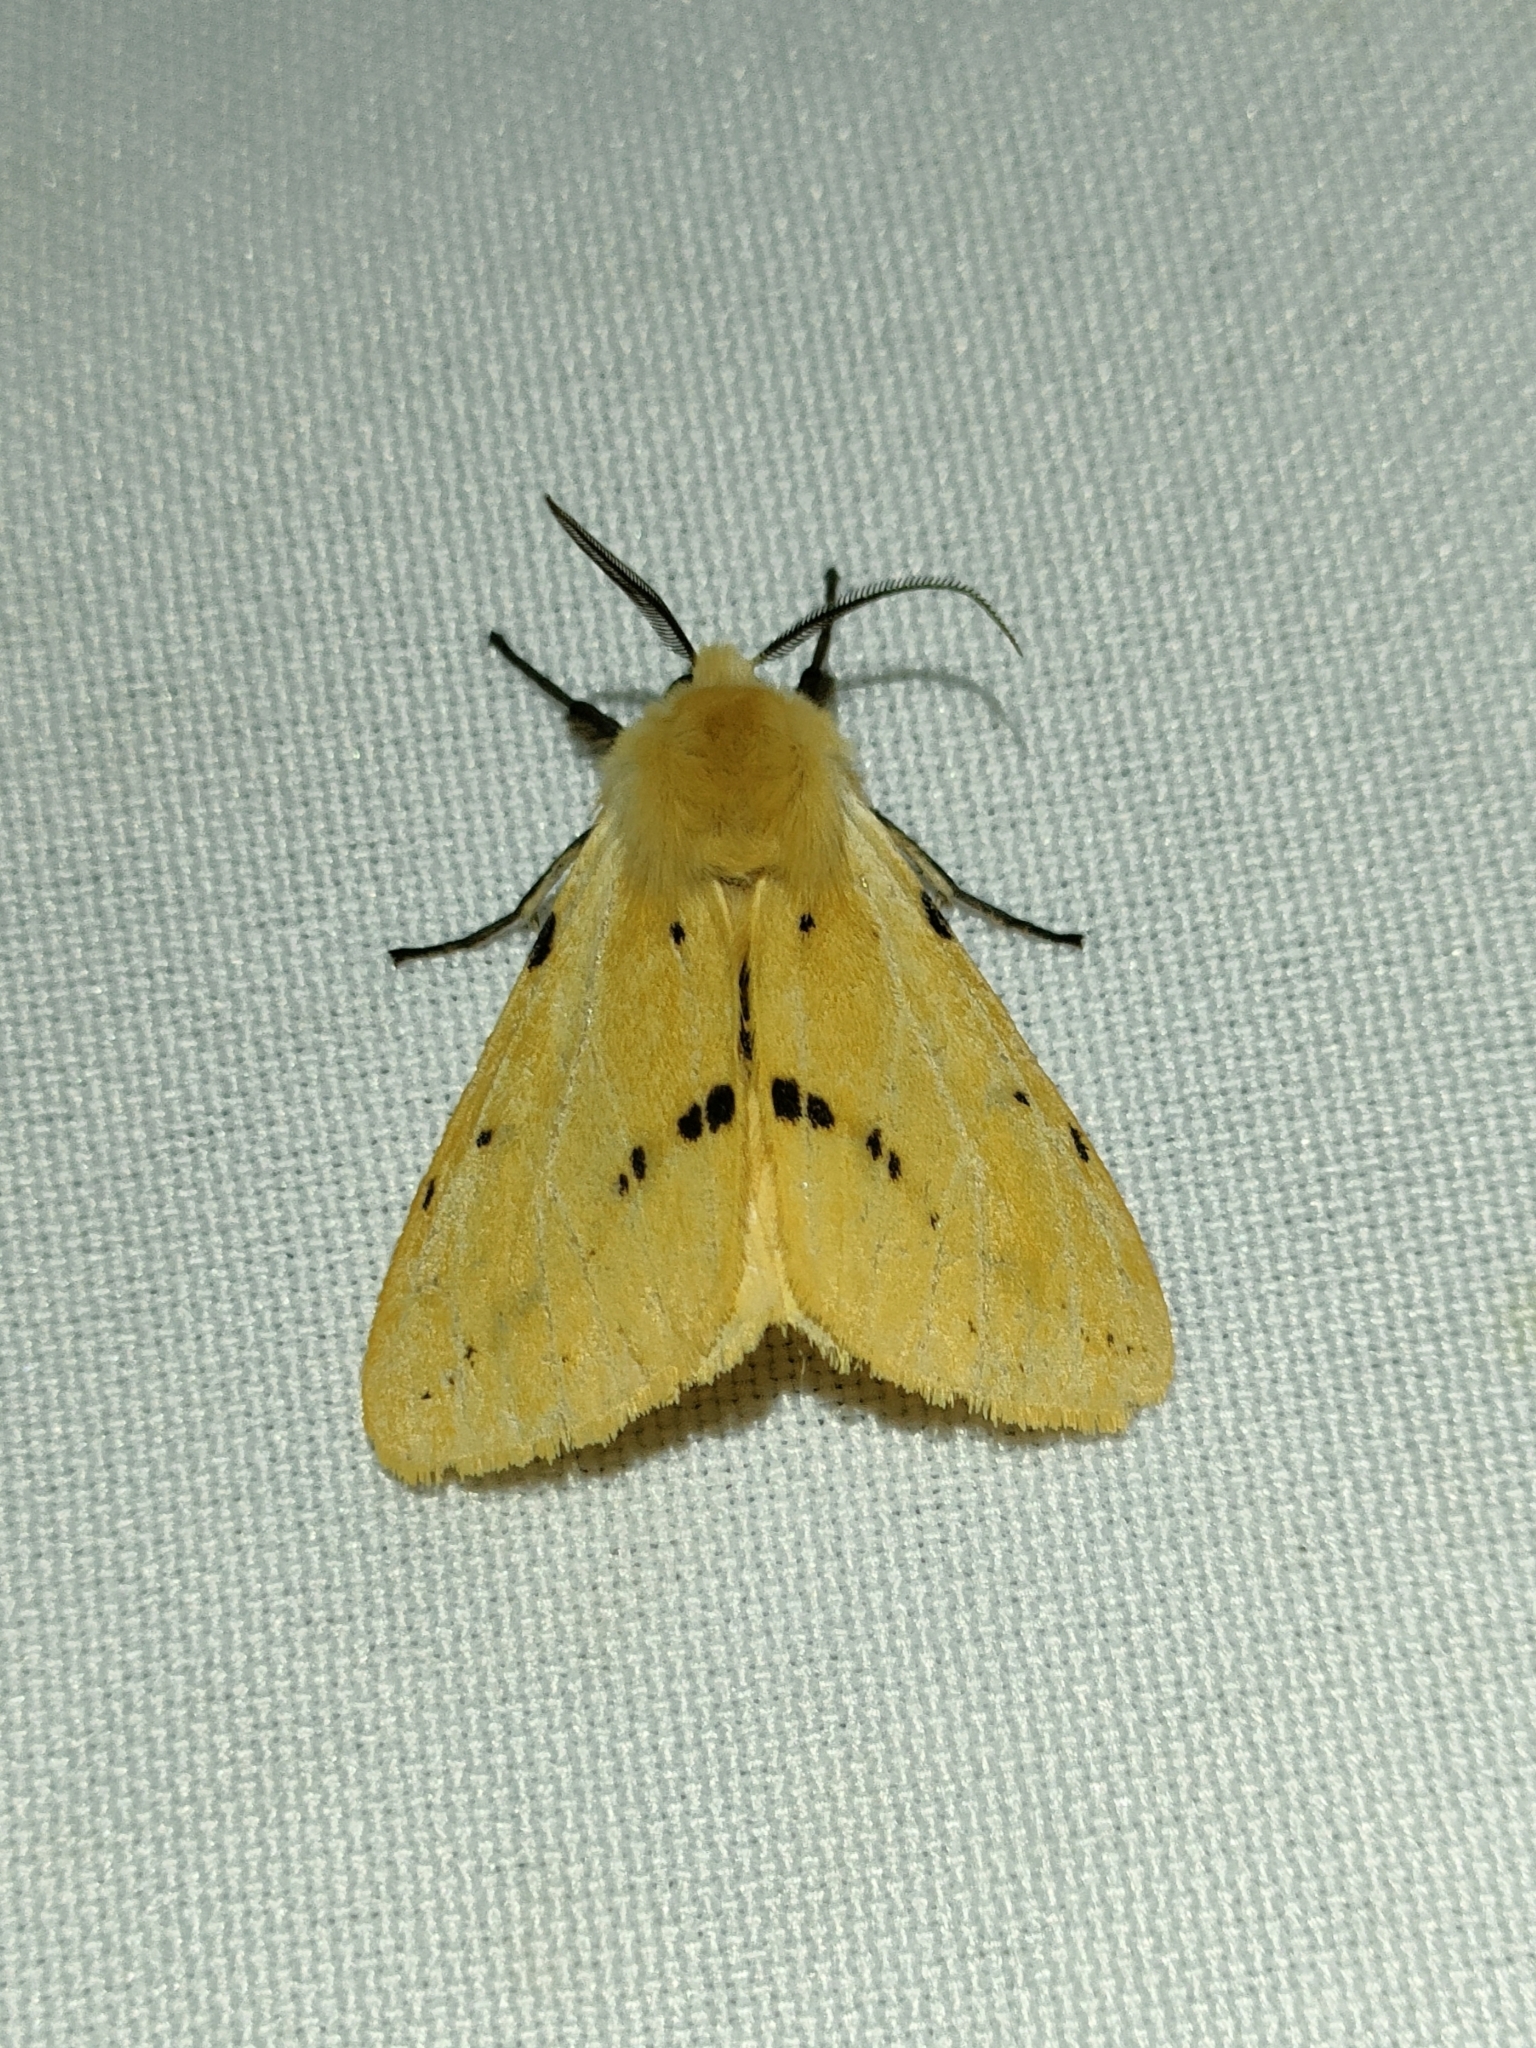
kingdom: Animalia
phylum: Arthropoda
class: Insecta
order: Lepidoptera
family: Erebidae
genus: Spilarctia
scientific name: Spilarctia lutea
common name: Buff ermine
